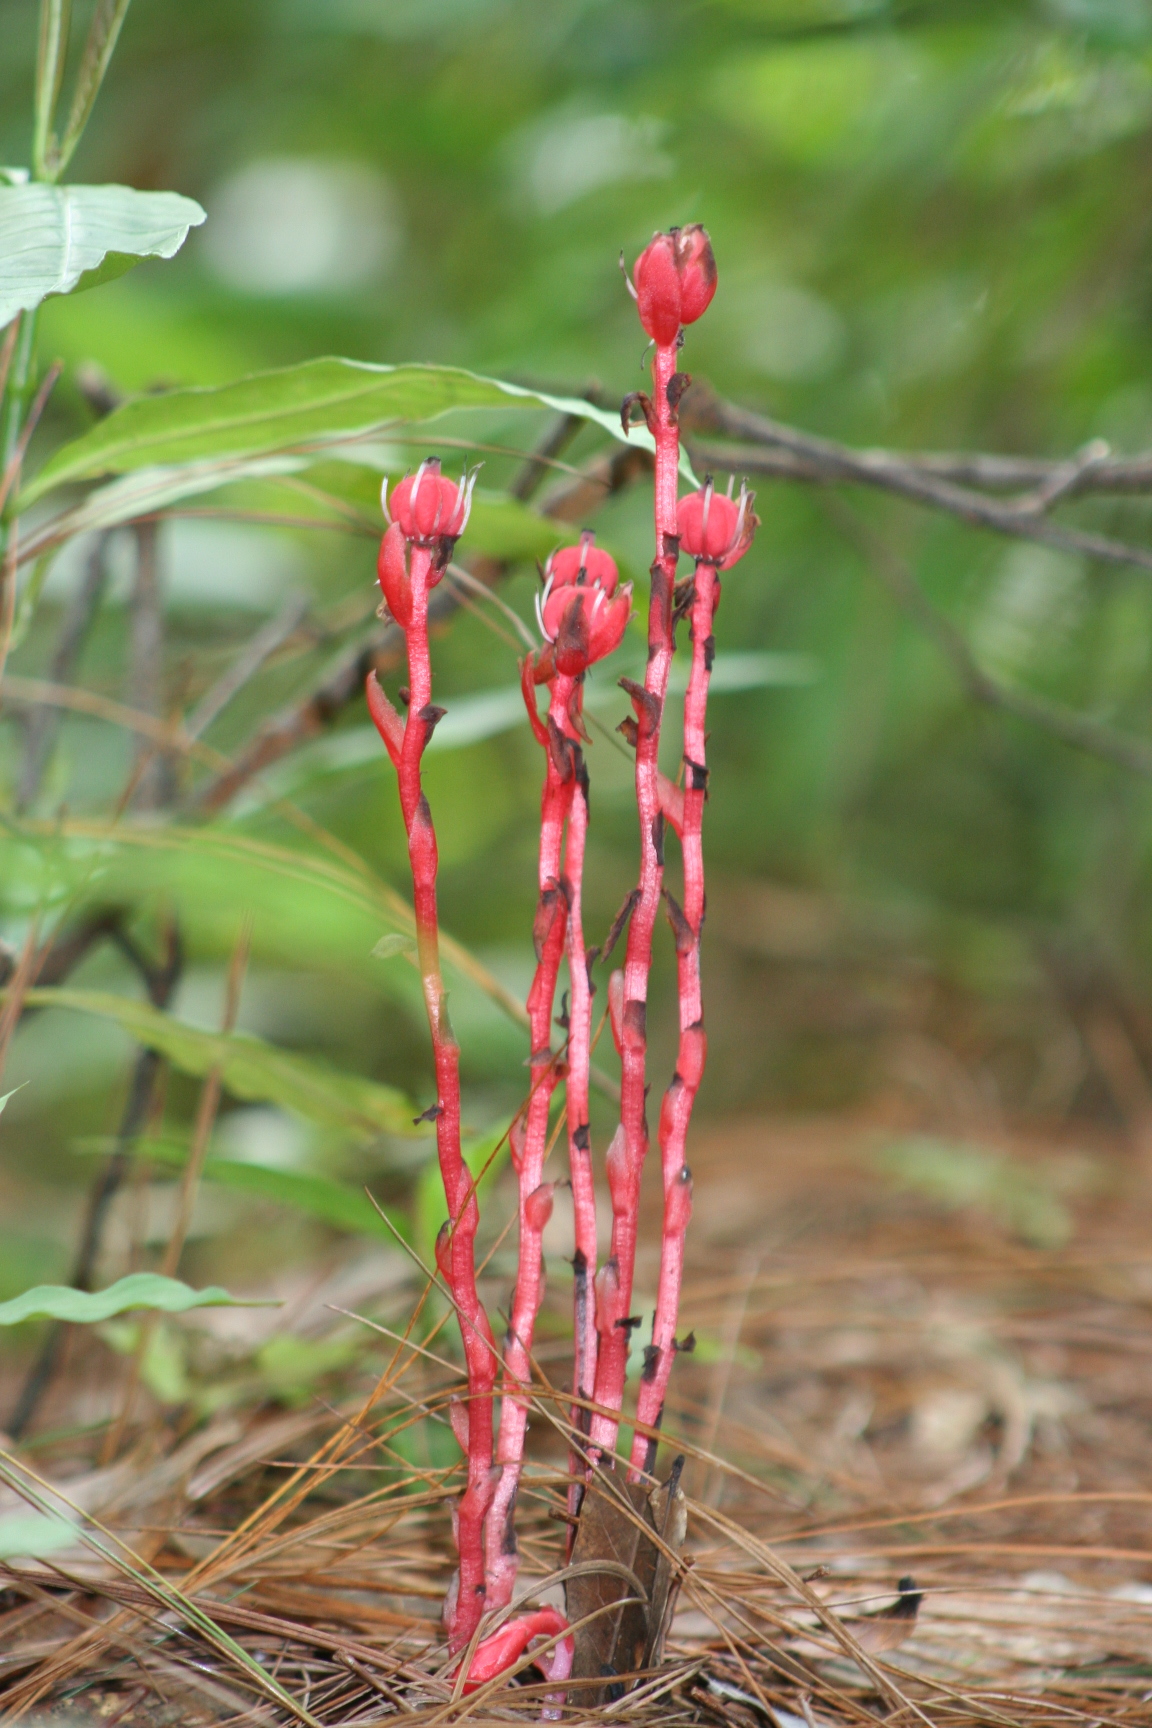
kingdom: Plantae
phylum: Tracheophyta
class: Magnoliopsida
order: Ericales
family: Ericaceae
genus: Monotropa
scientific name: Monotropa coccinea
